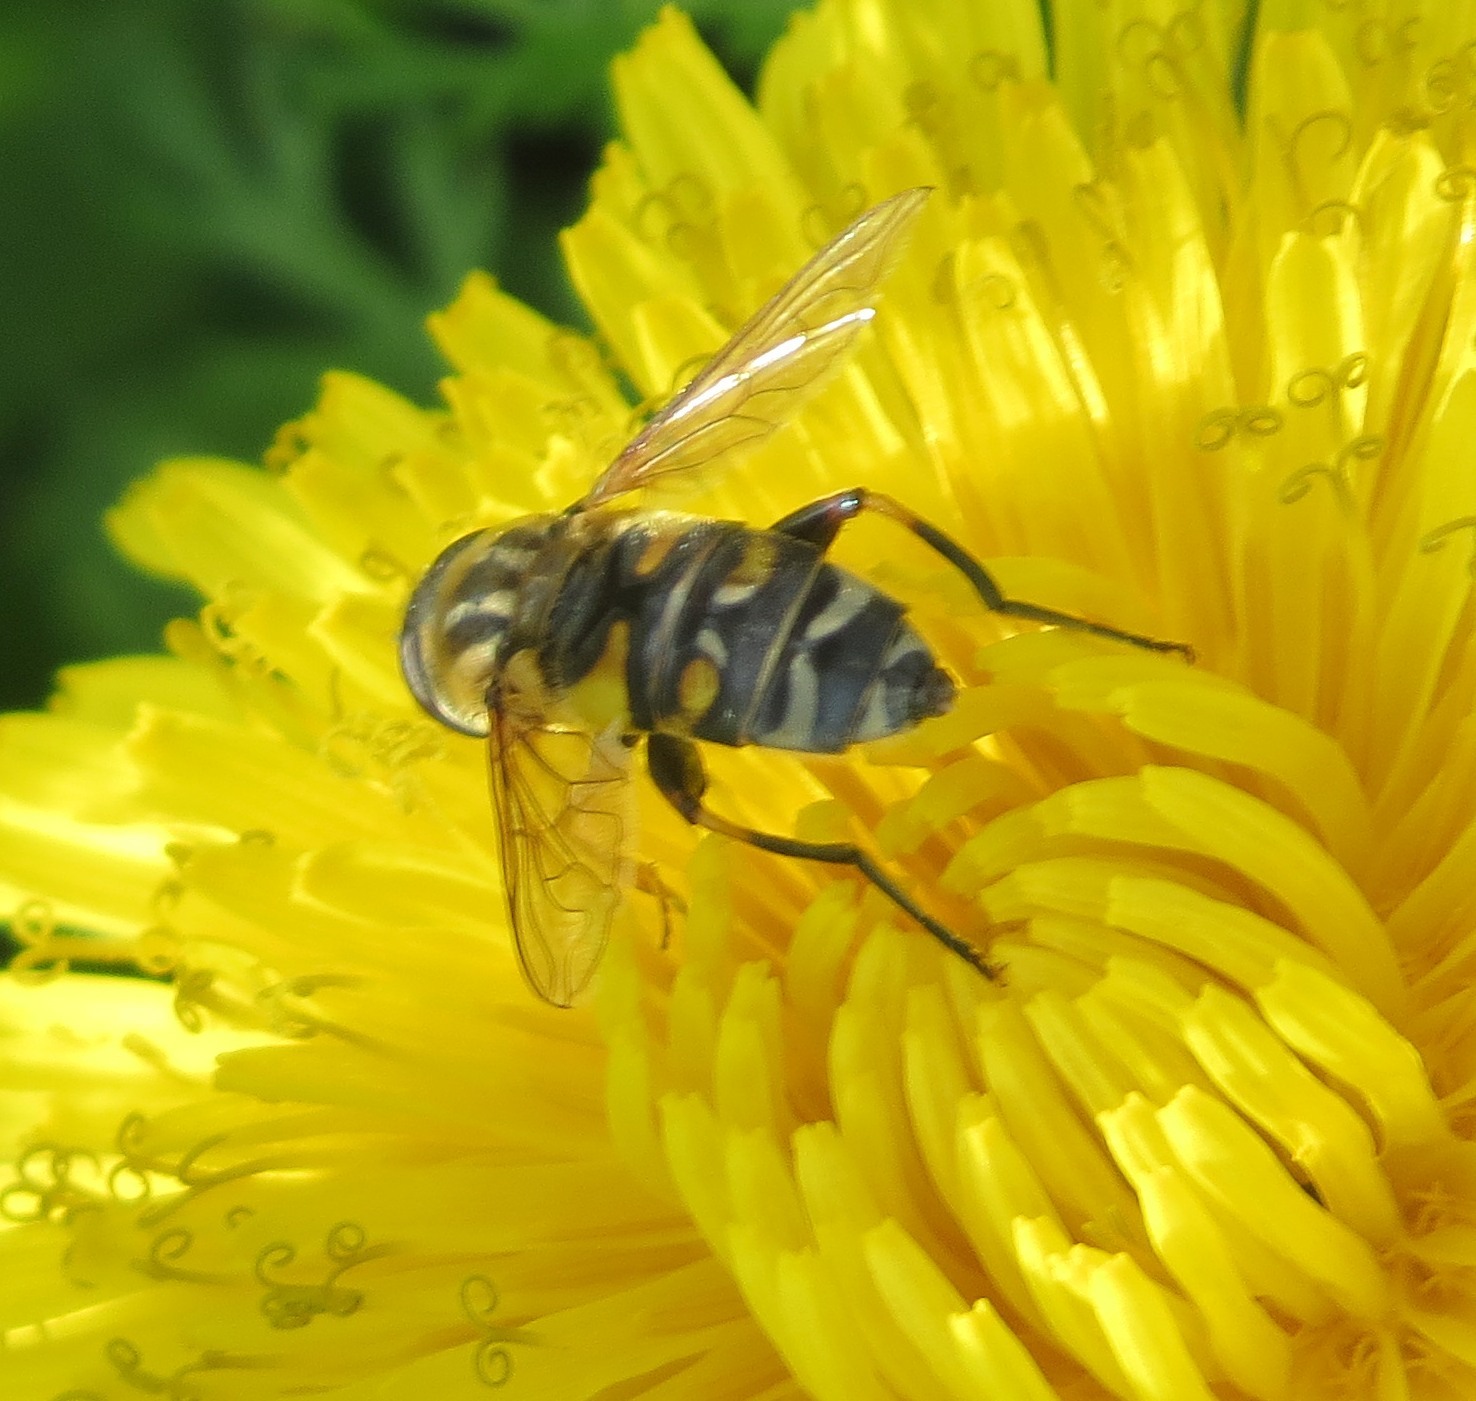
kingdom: Animalia
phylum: Arthropoda
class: Insecta
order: Diptera
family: Syrphidae
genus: Helophilus
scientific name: Helophilus trivittatus
